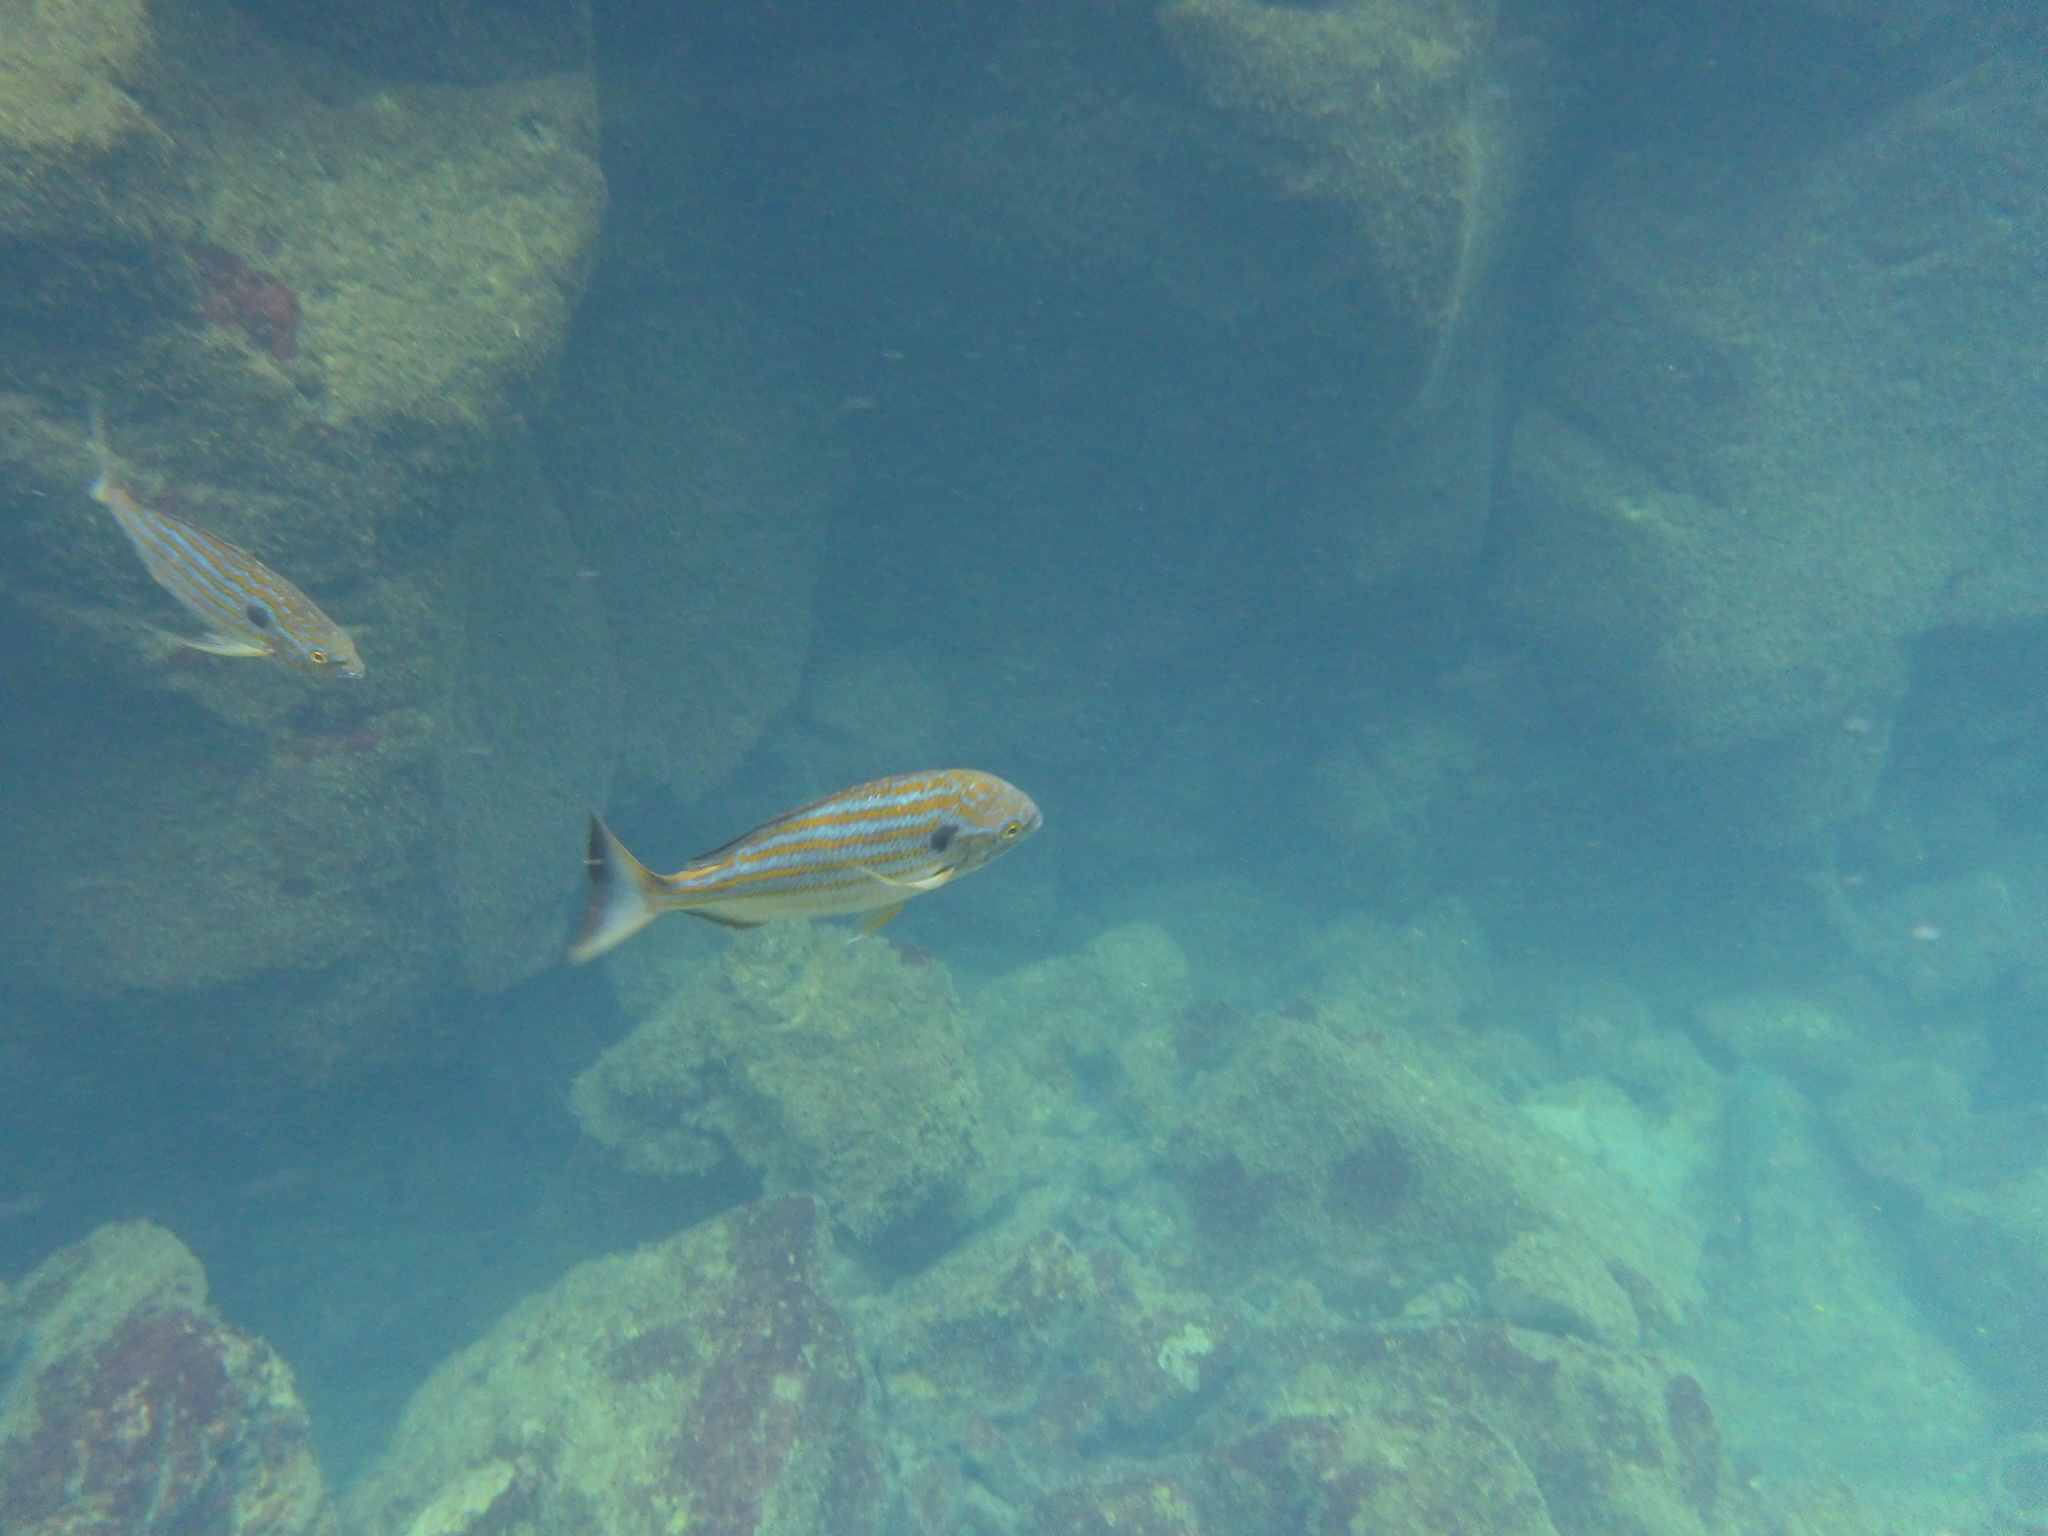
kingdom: Animalia
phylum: Chordata
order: Perciformes
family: Sparidae
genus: Archosargus
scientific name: Archosargus pourtalesii
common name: Blackspot porgy
